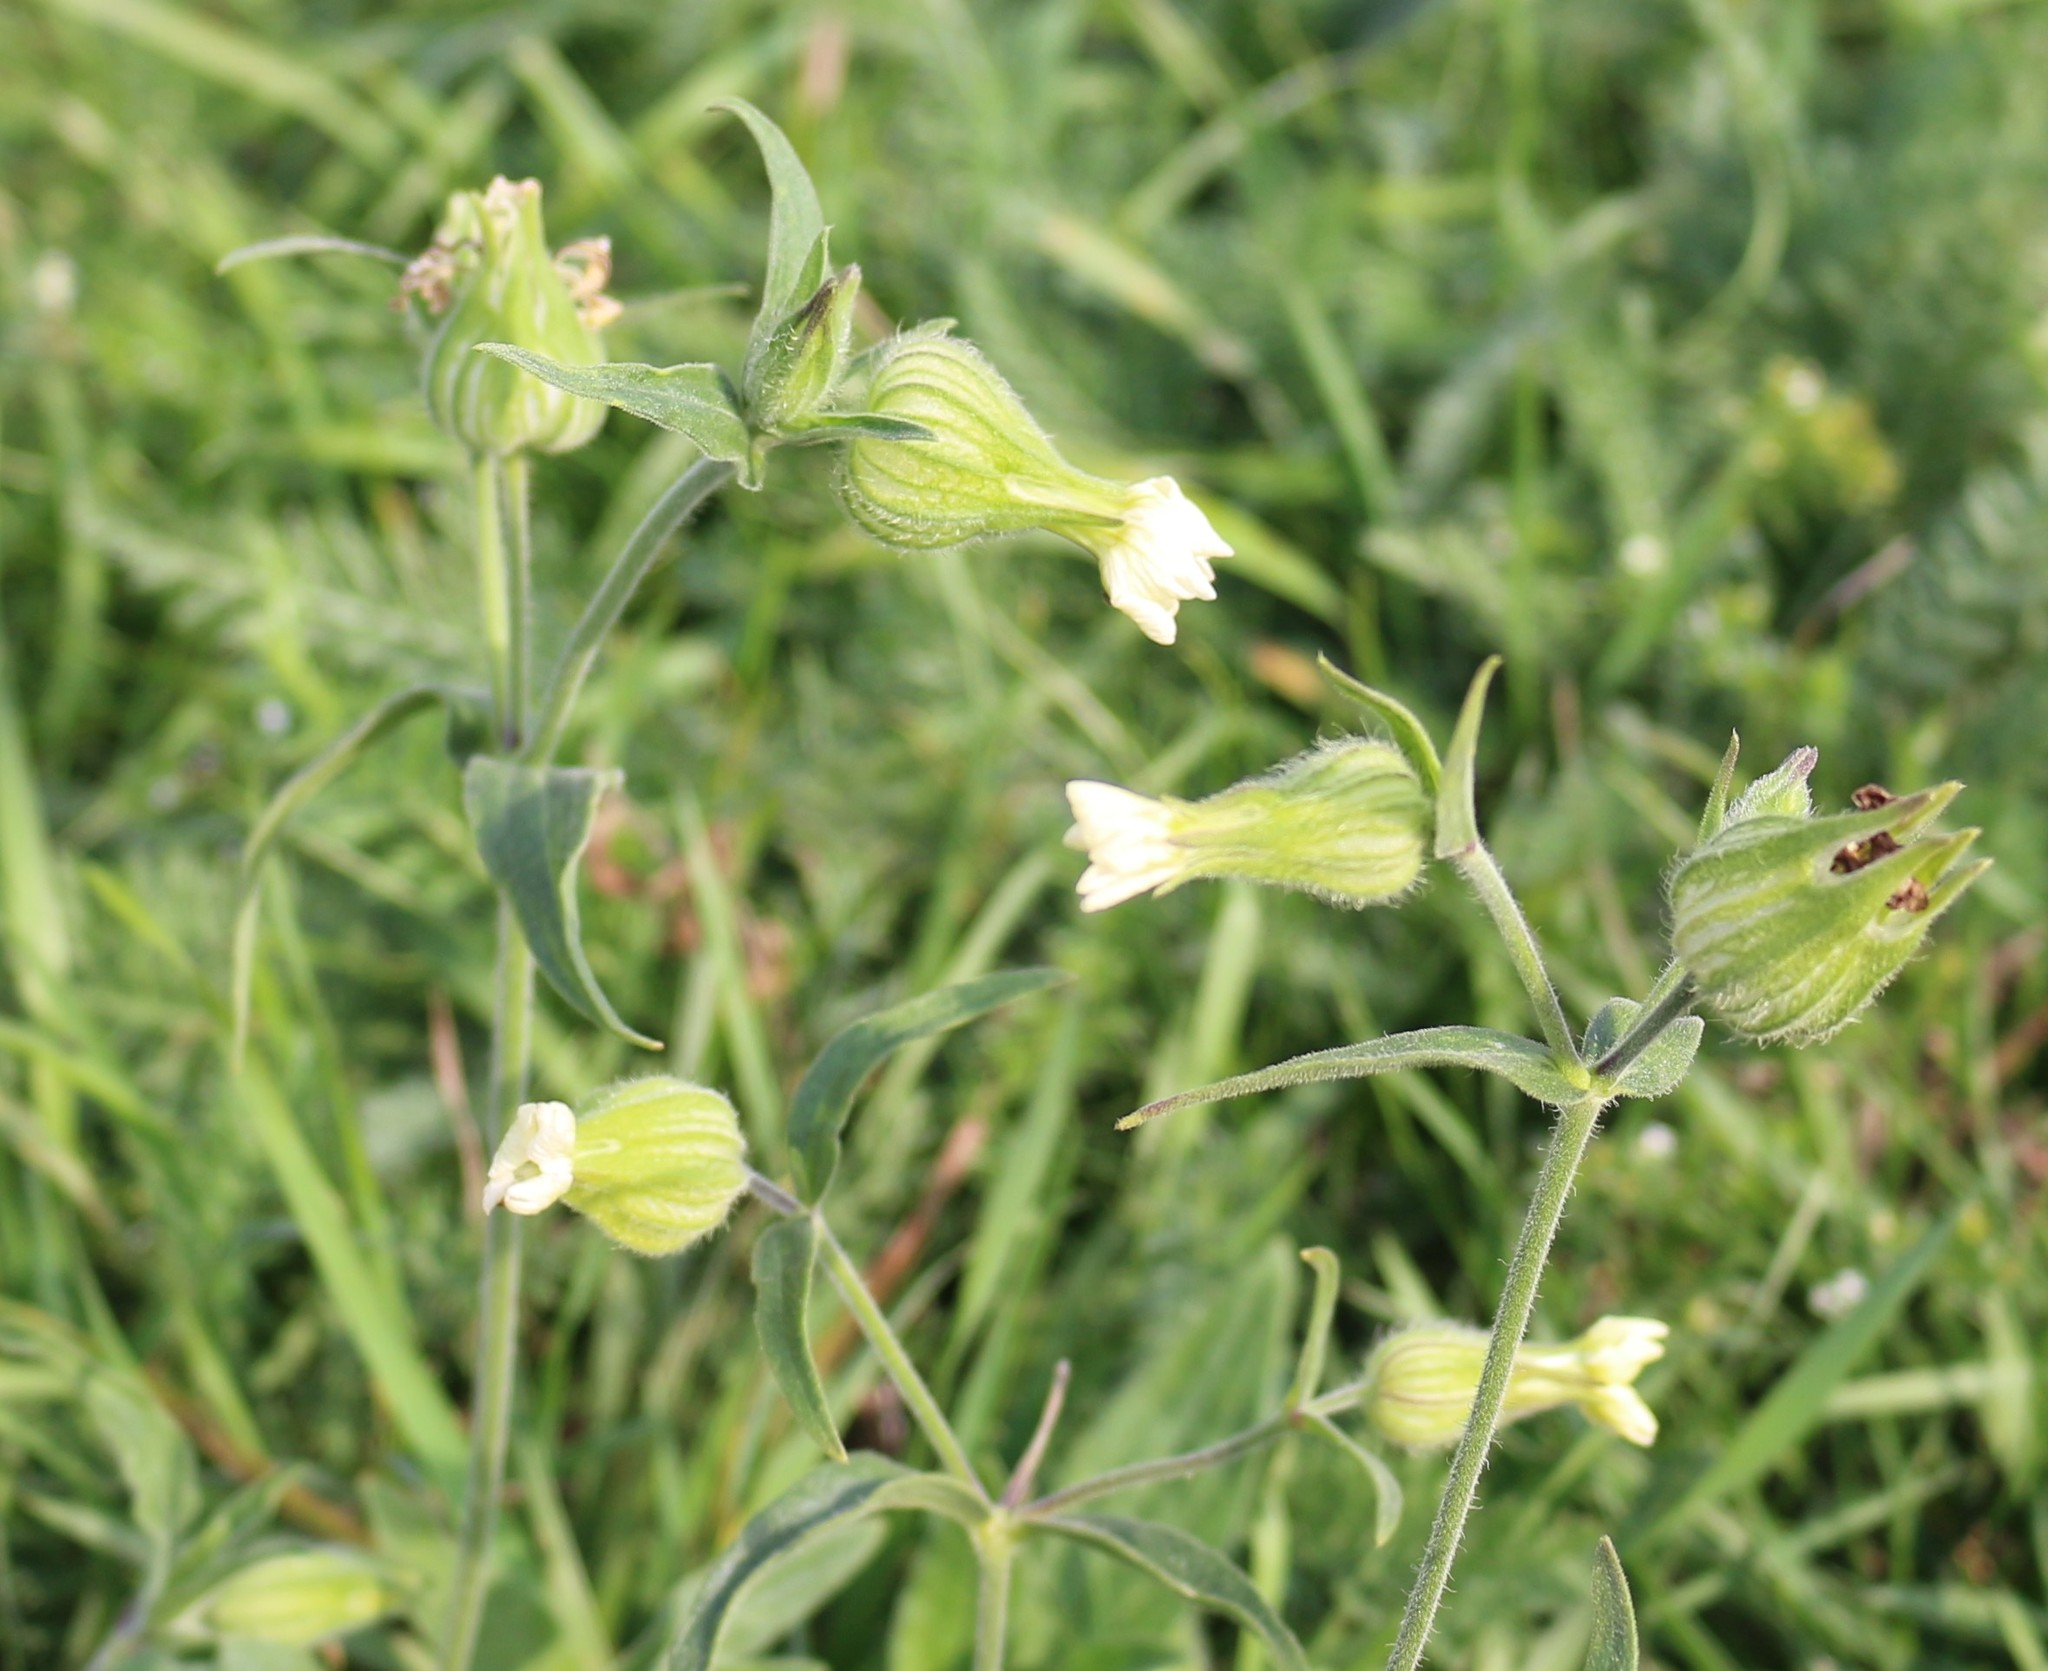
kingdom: Plantae
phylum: Tracheophyta
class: Magnoliopsida
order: Caryophyllales
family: Caryophyllaceae
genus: Silene
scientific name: Silene latifolia
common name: White campion
